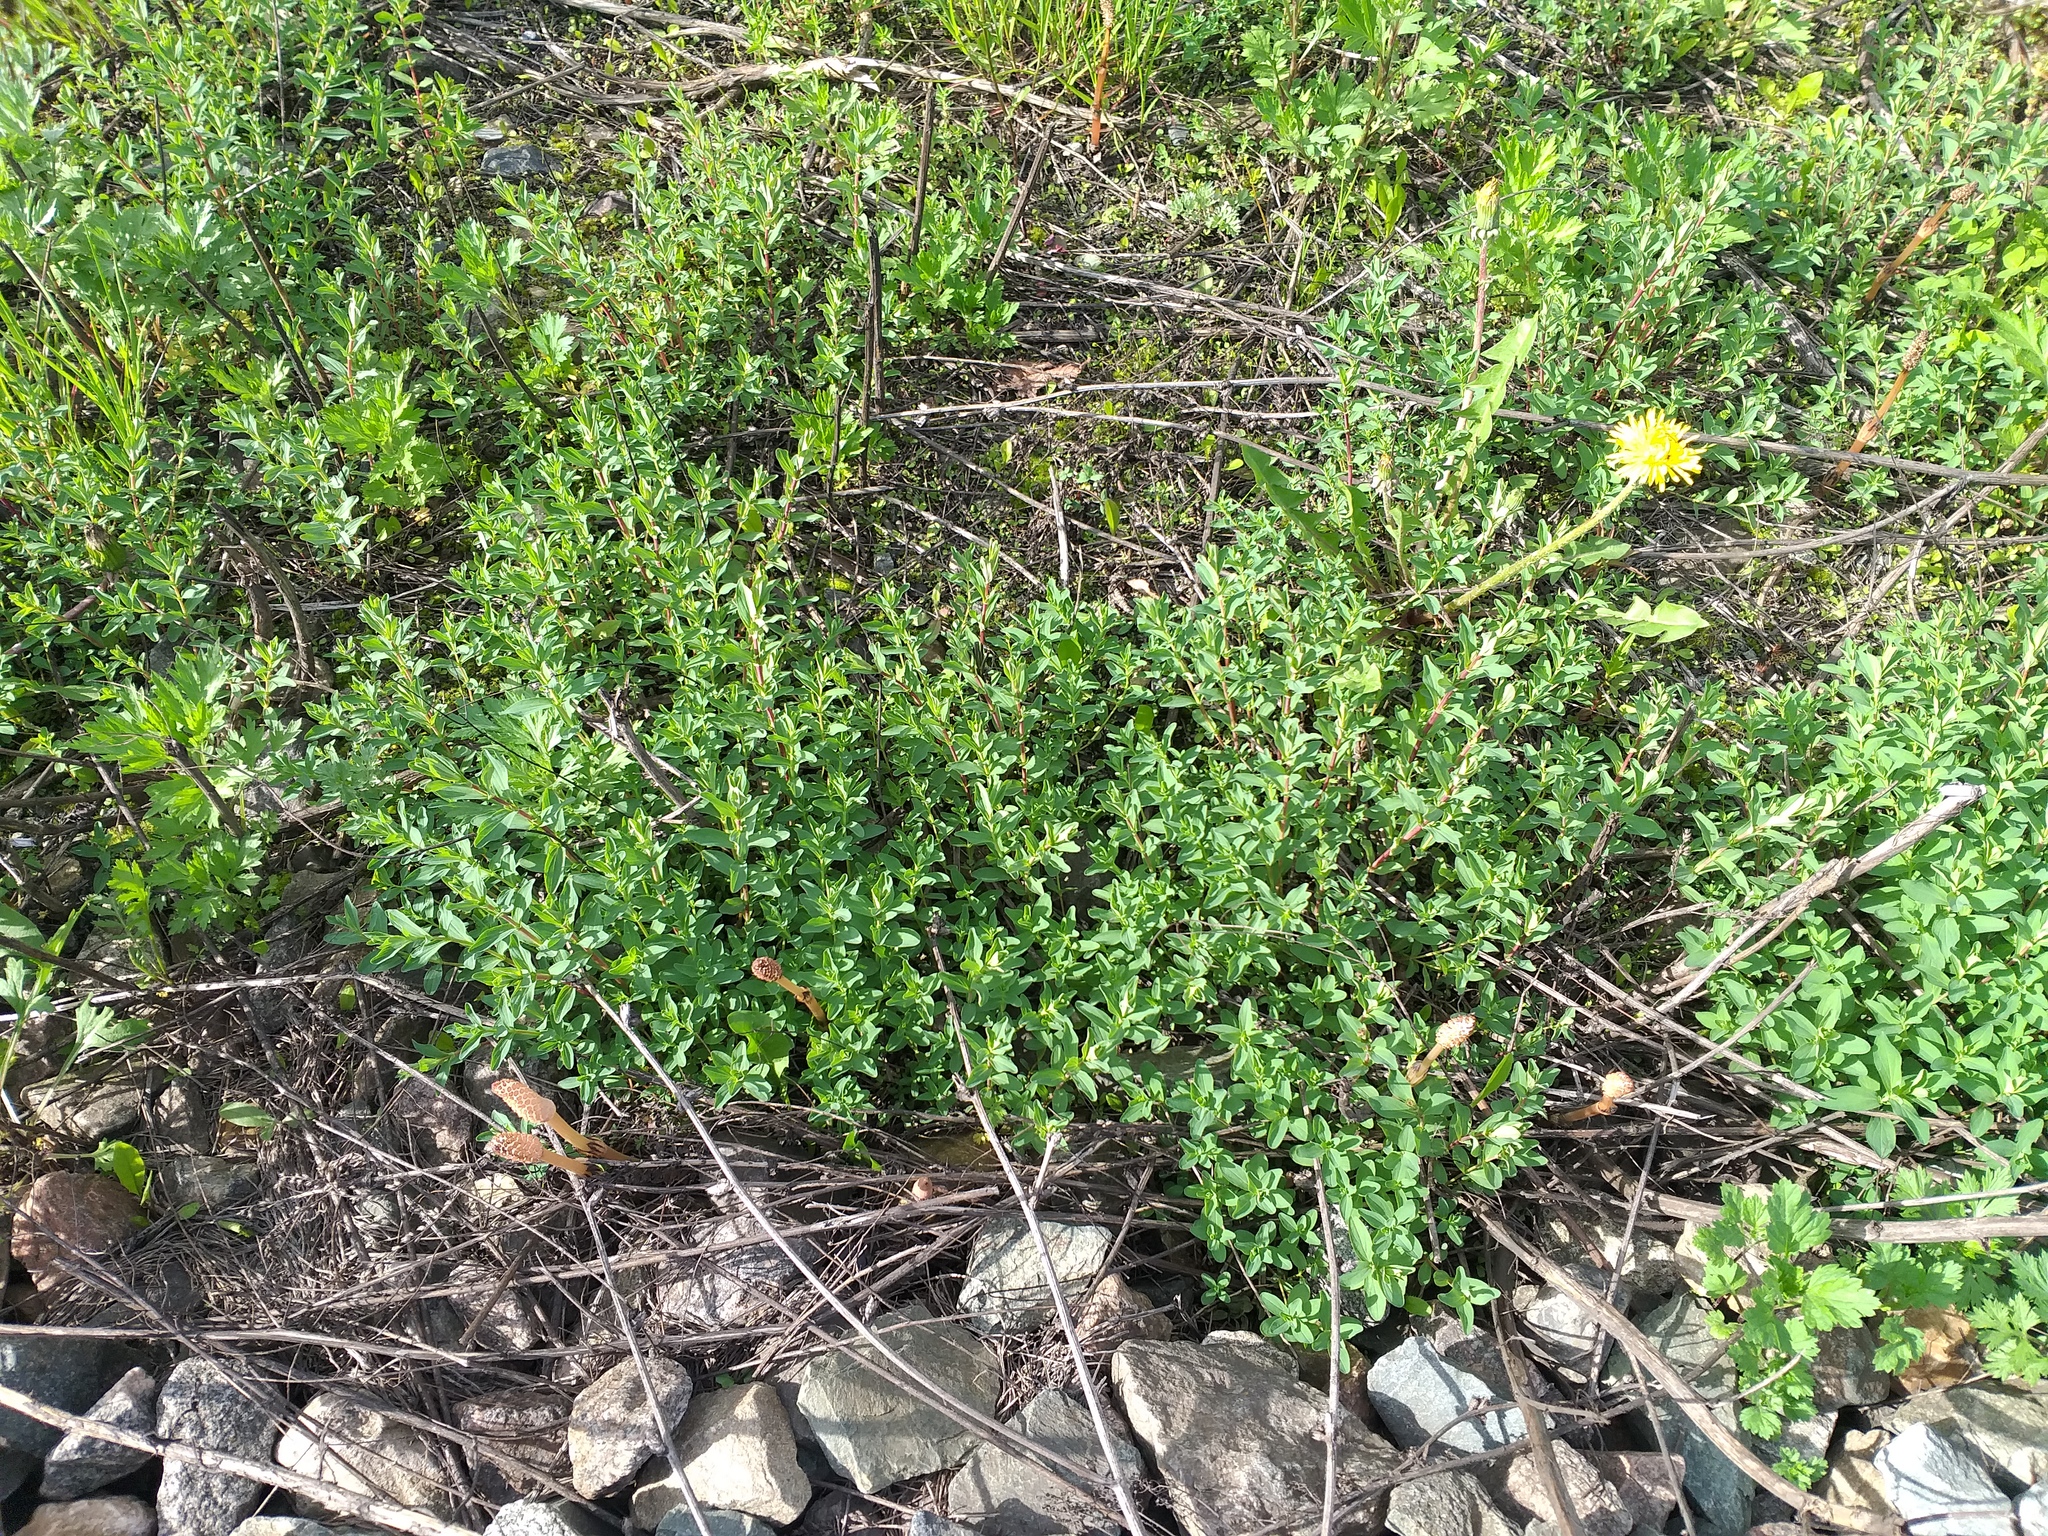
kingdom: Plantae
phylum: Tracheophyta
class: Magnoliopsida
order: Malpighiales
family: Hypericaceae
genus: Hypericum
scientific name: Hypericum perforatum
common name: Common st. johnswort
